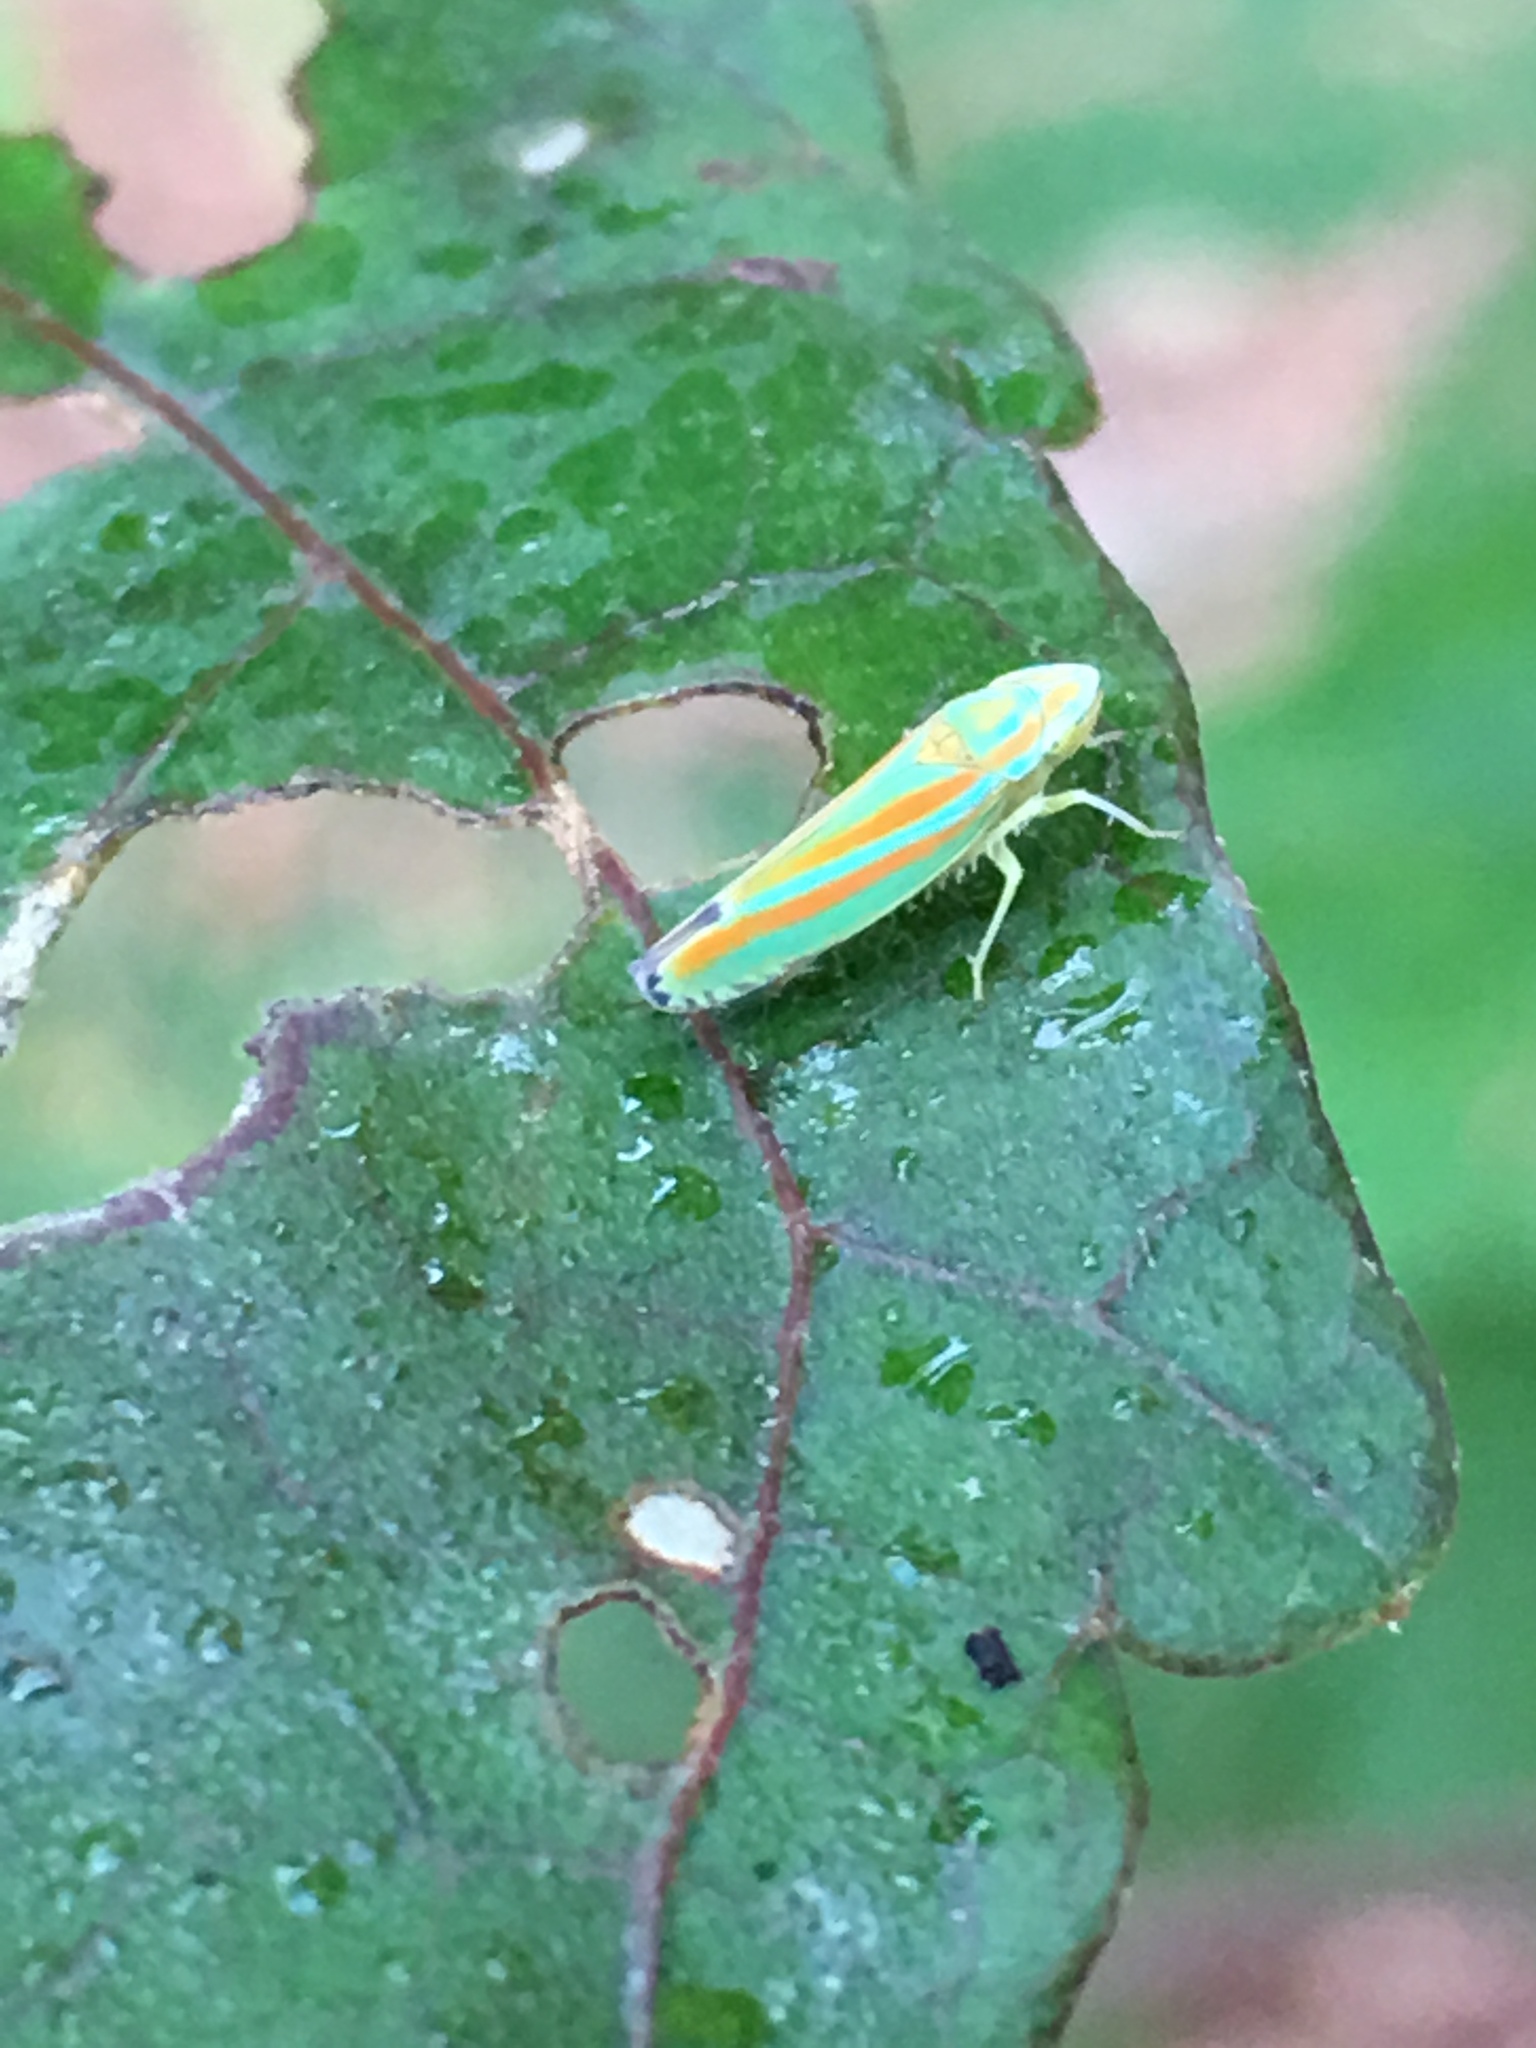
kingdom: Animalia
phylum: Arthropoda
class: Insecta
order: Hemiptera
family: Cicadellidae
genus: Graphocephala
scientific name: Graphocephala versuta
